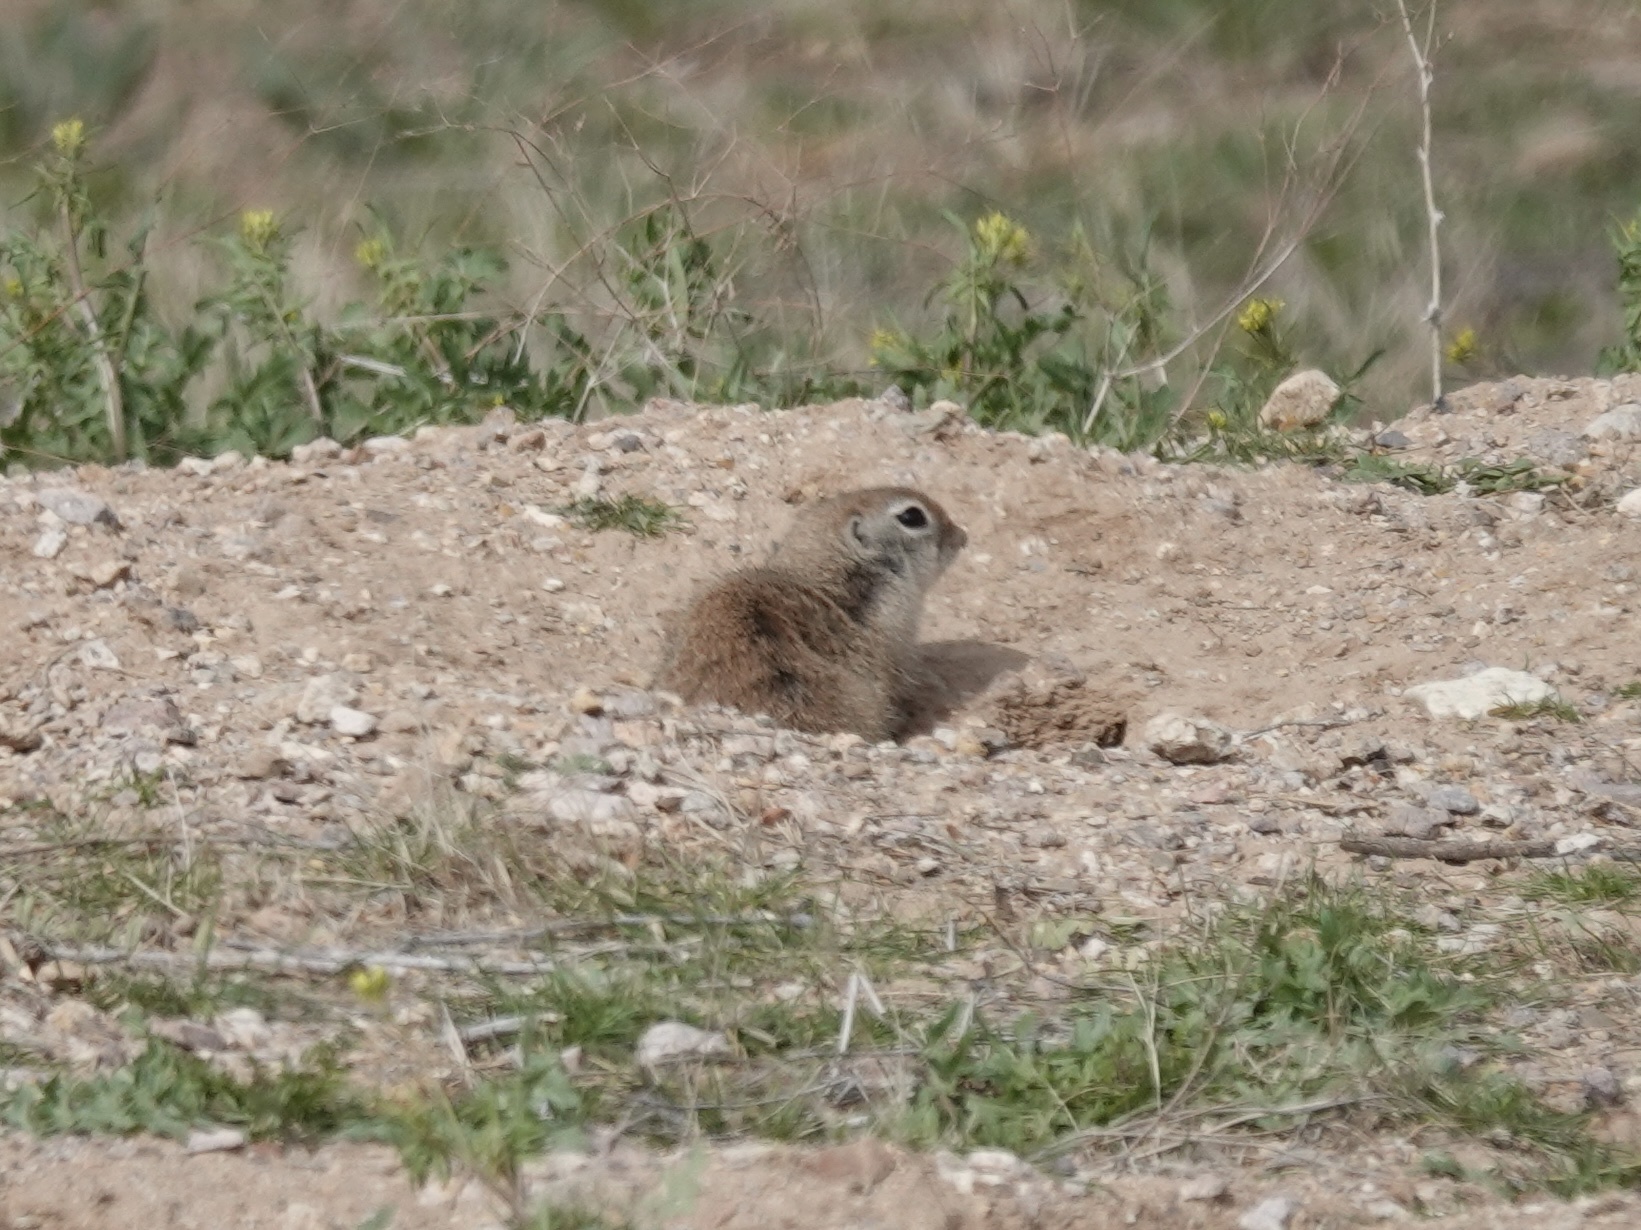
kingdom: Animalia
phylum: Chordata
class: Mammalia
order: Rodentia
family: Sciuridae
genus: Xerospermophilus
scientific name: Xerospermophilus tereticaudus
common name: Round-tailed ground squirrel
